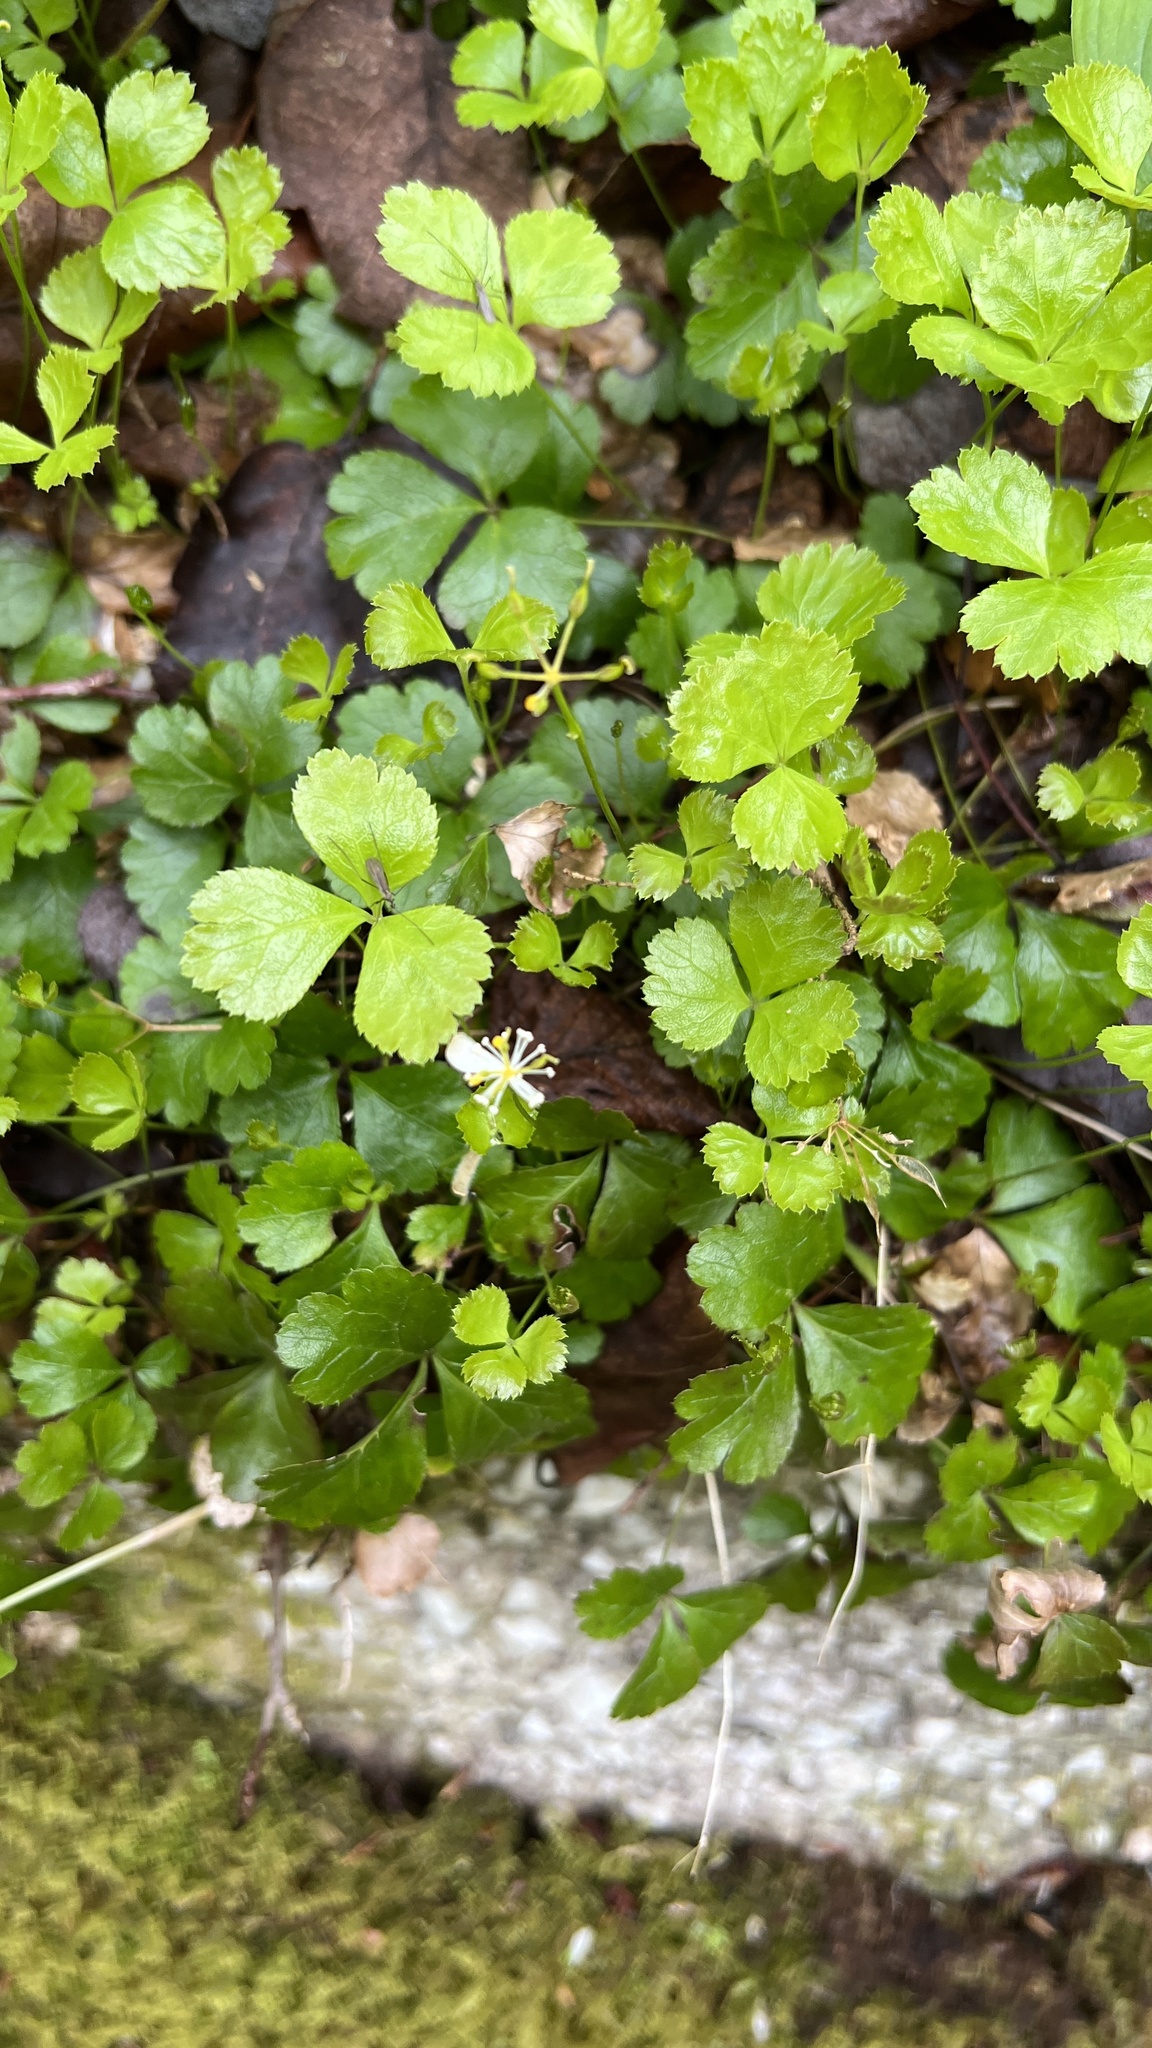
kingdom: Plantae
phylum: Tracheophyta
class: Magnoliopsida
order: Ranunculales
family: Ranunculaceae
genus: Coptis
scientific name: Coptis trifolia
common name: Canker-root
